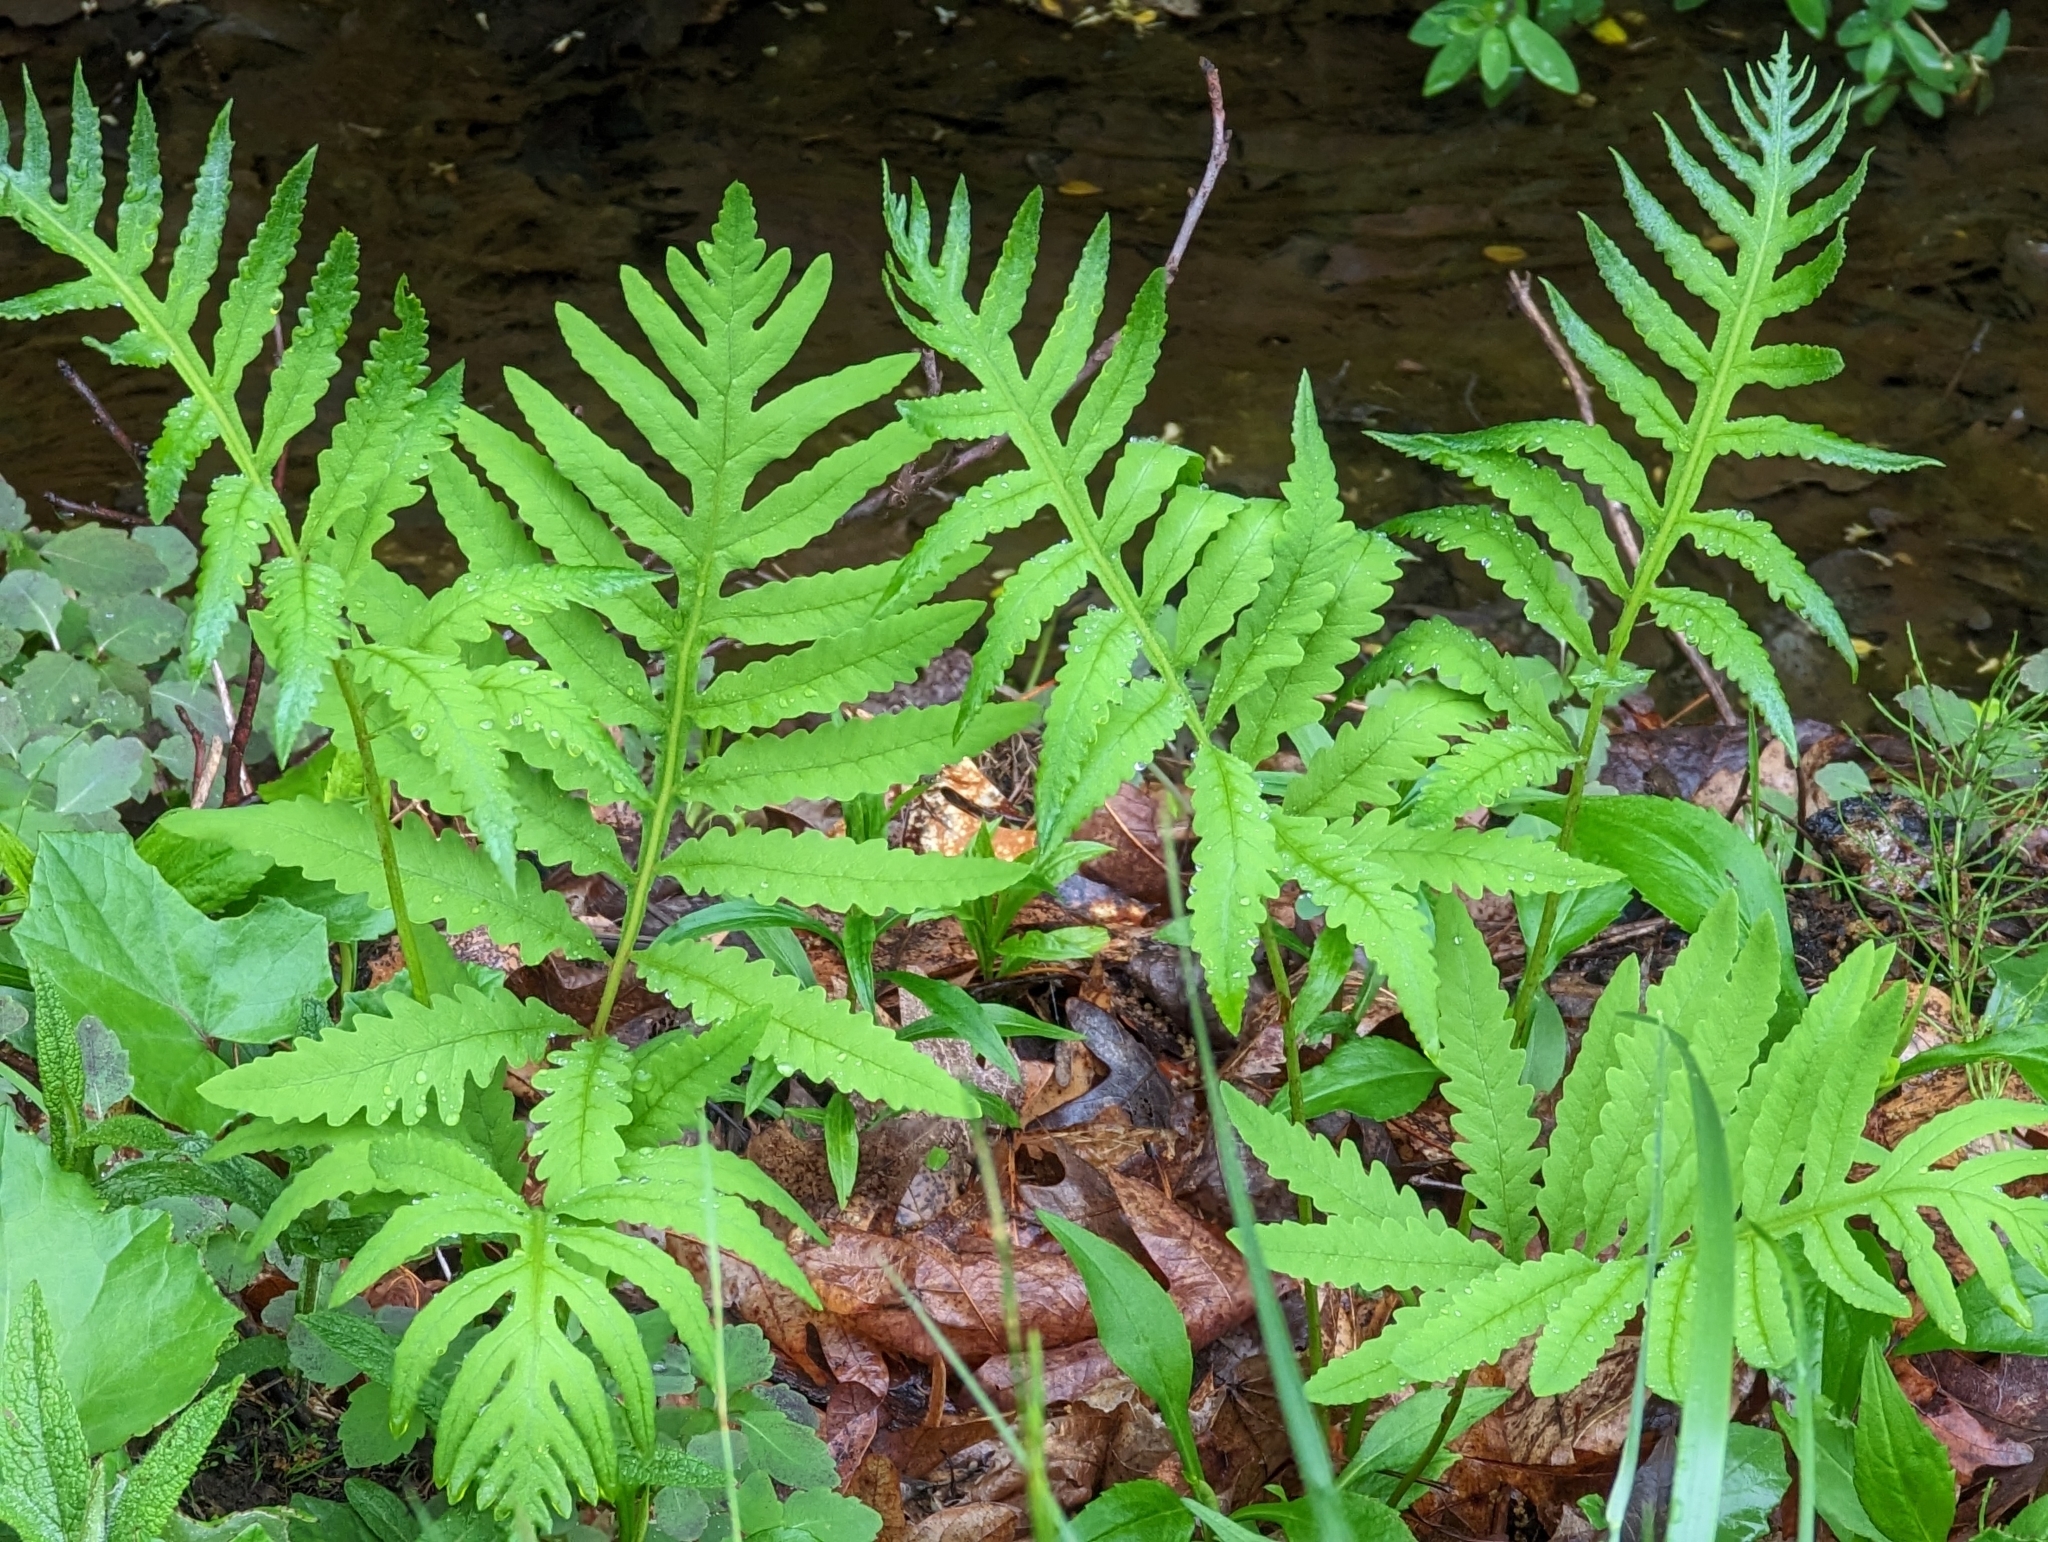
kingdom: Plantae
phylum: Tracheophyta
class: Polypodiopsida
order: Polypodiales
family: Onocleaceae
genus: Onoclea
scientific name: Onoclea sensibilis
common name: Sensitive fern
